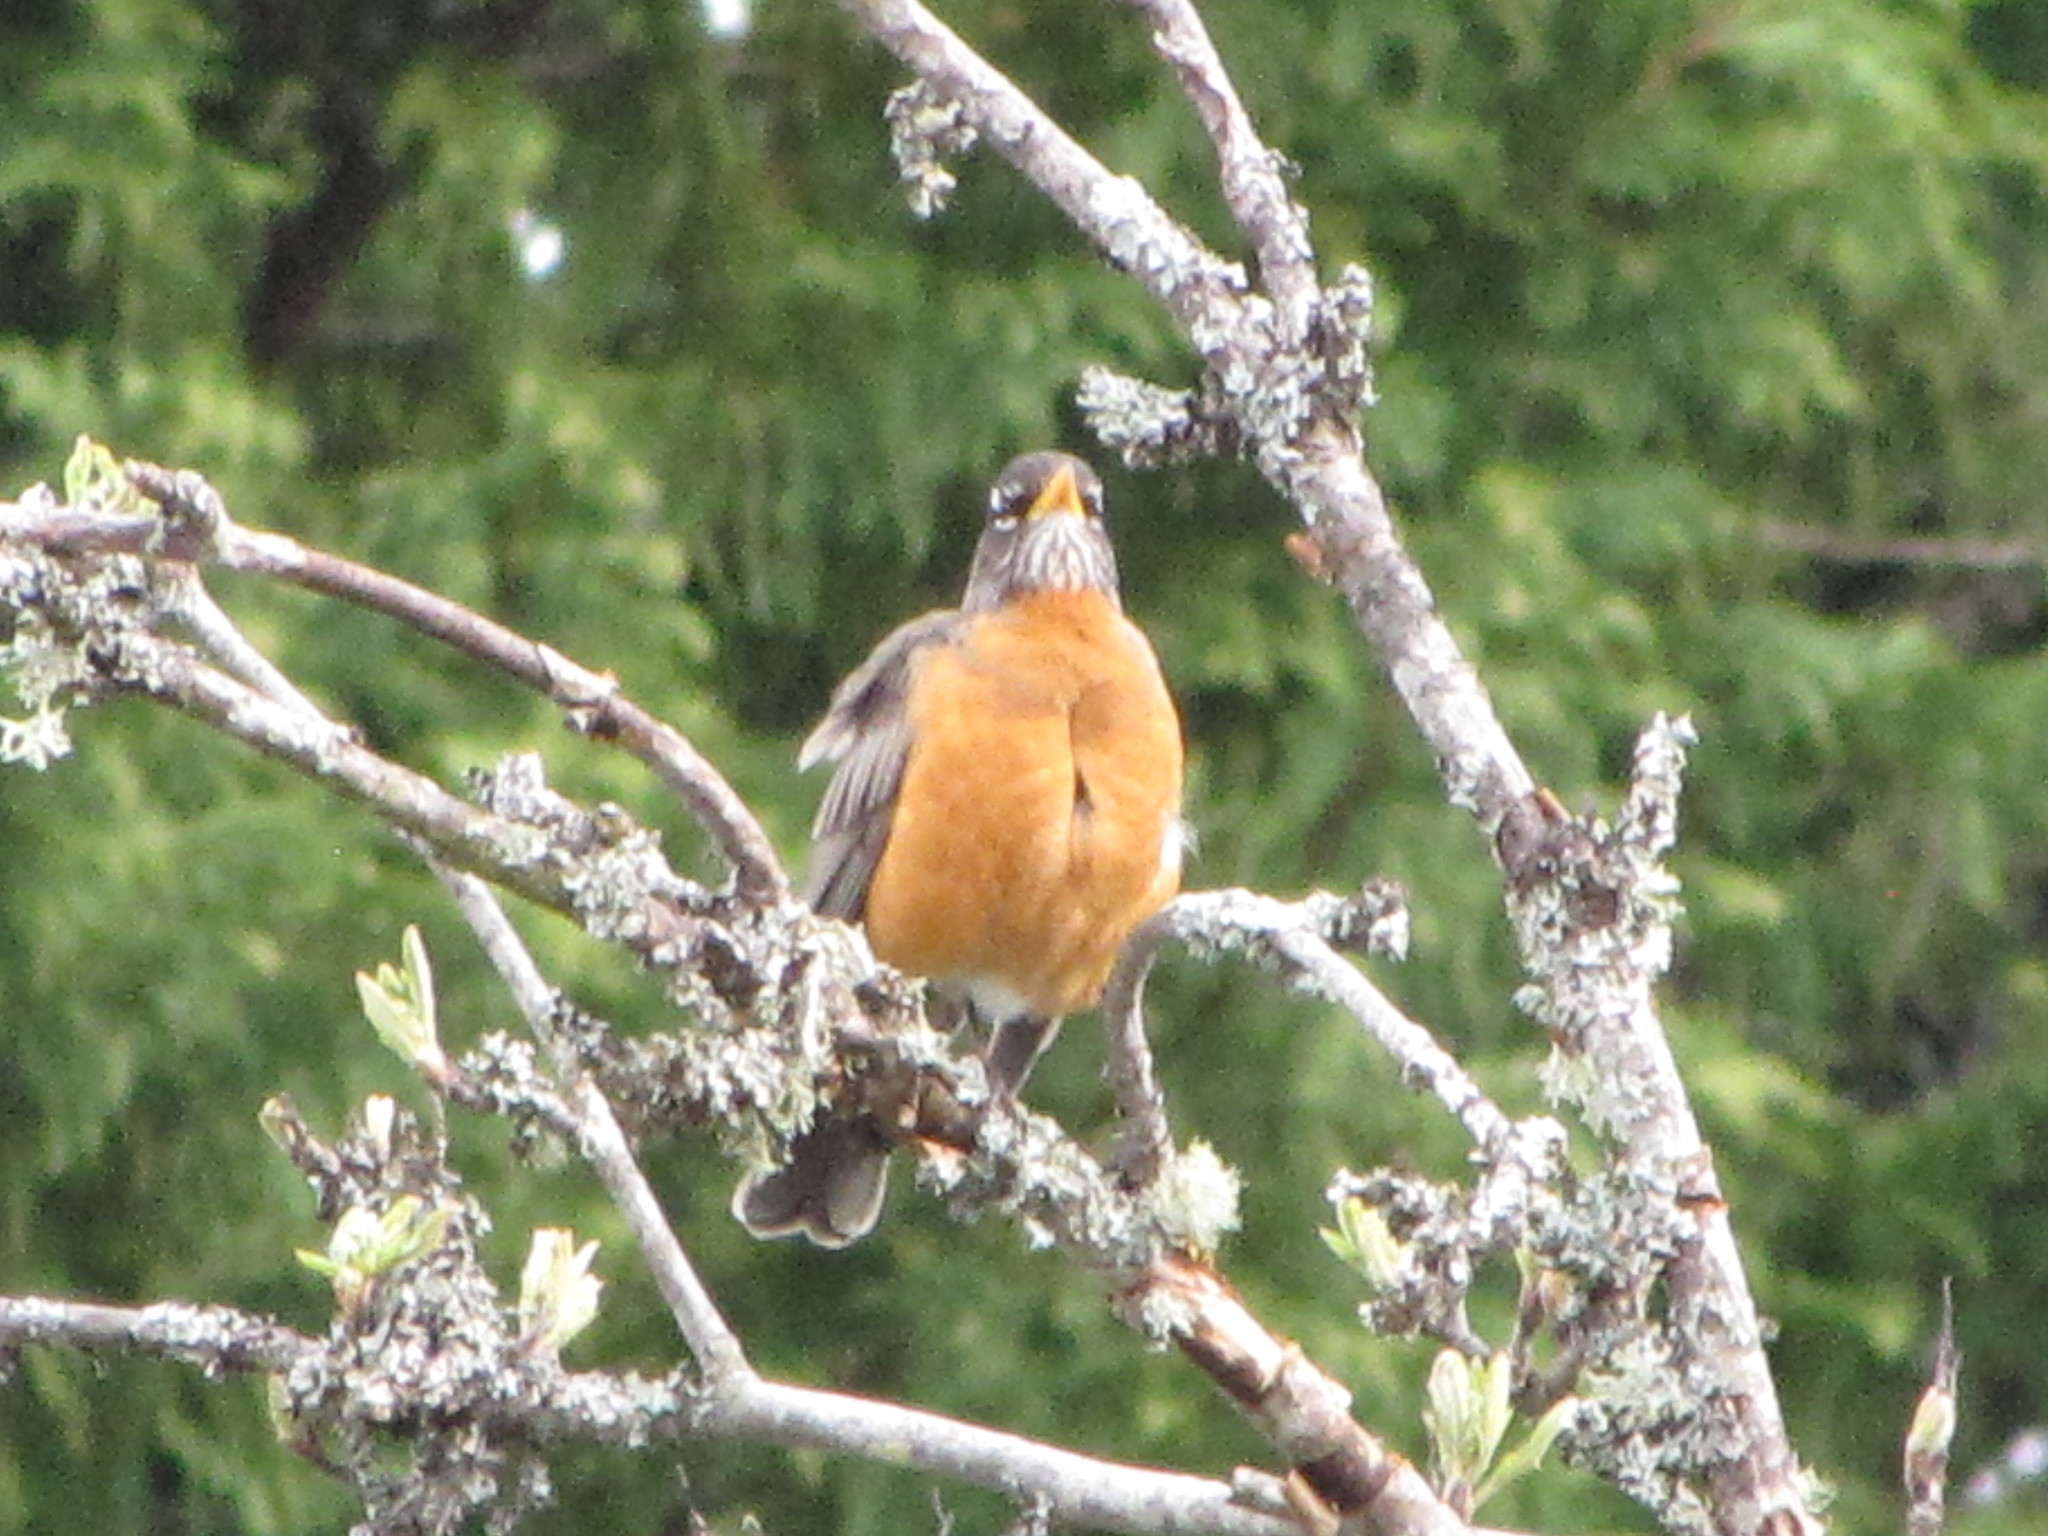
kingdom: Animalia
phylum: Chordata
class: Aves
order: Passeriformes
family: Turdidae
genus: Turdus
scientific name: Turdus migratorius
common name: American robin
